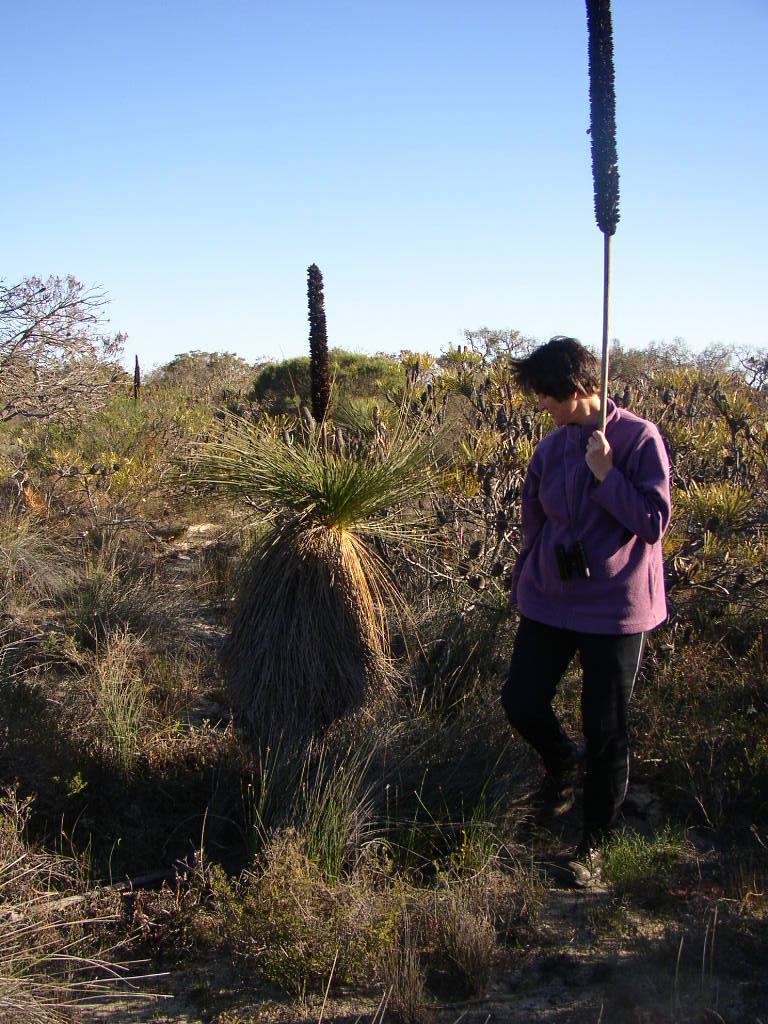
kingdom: Plantae
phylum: Tracheophyta
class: Liliopsida
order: Asparagales
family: Asphodelaceae
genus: Xanthorrhoea
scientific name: Xanthorrhoea drummondii
